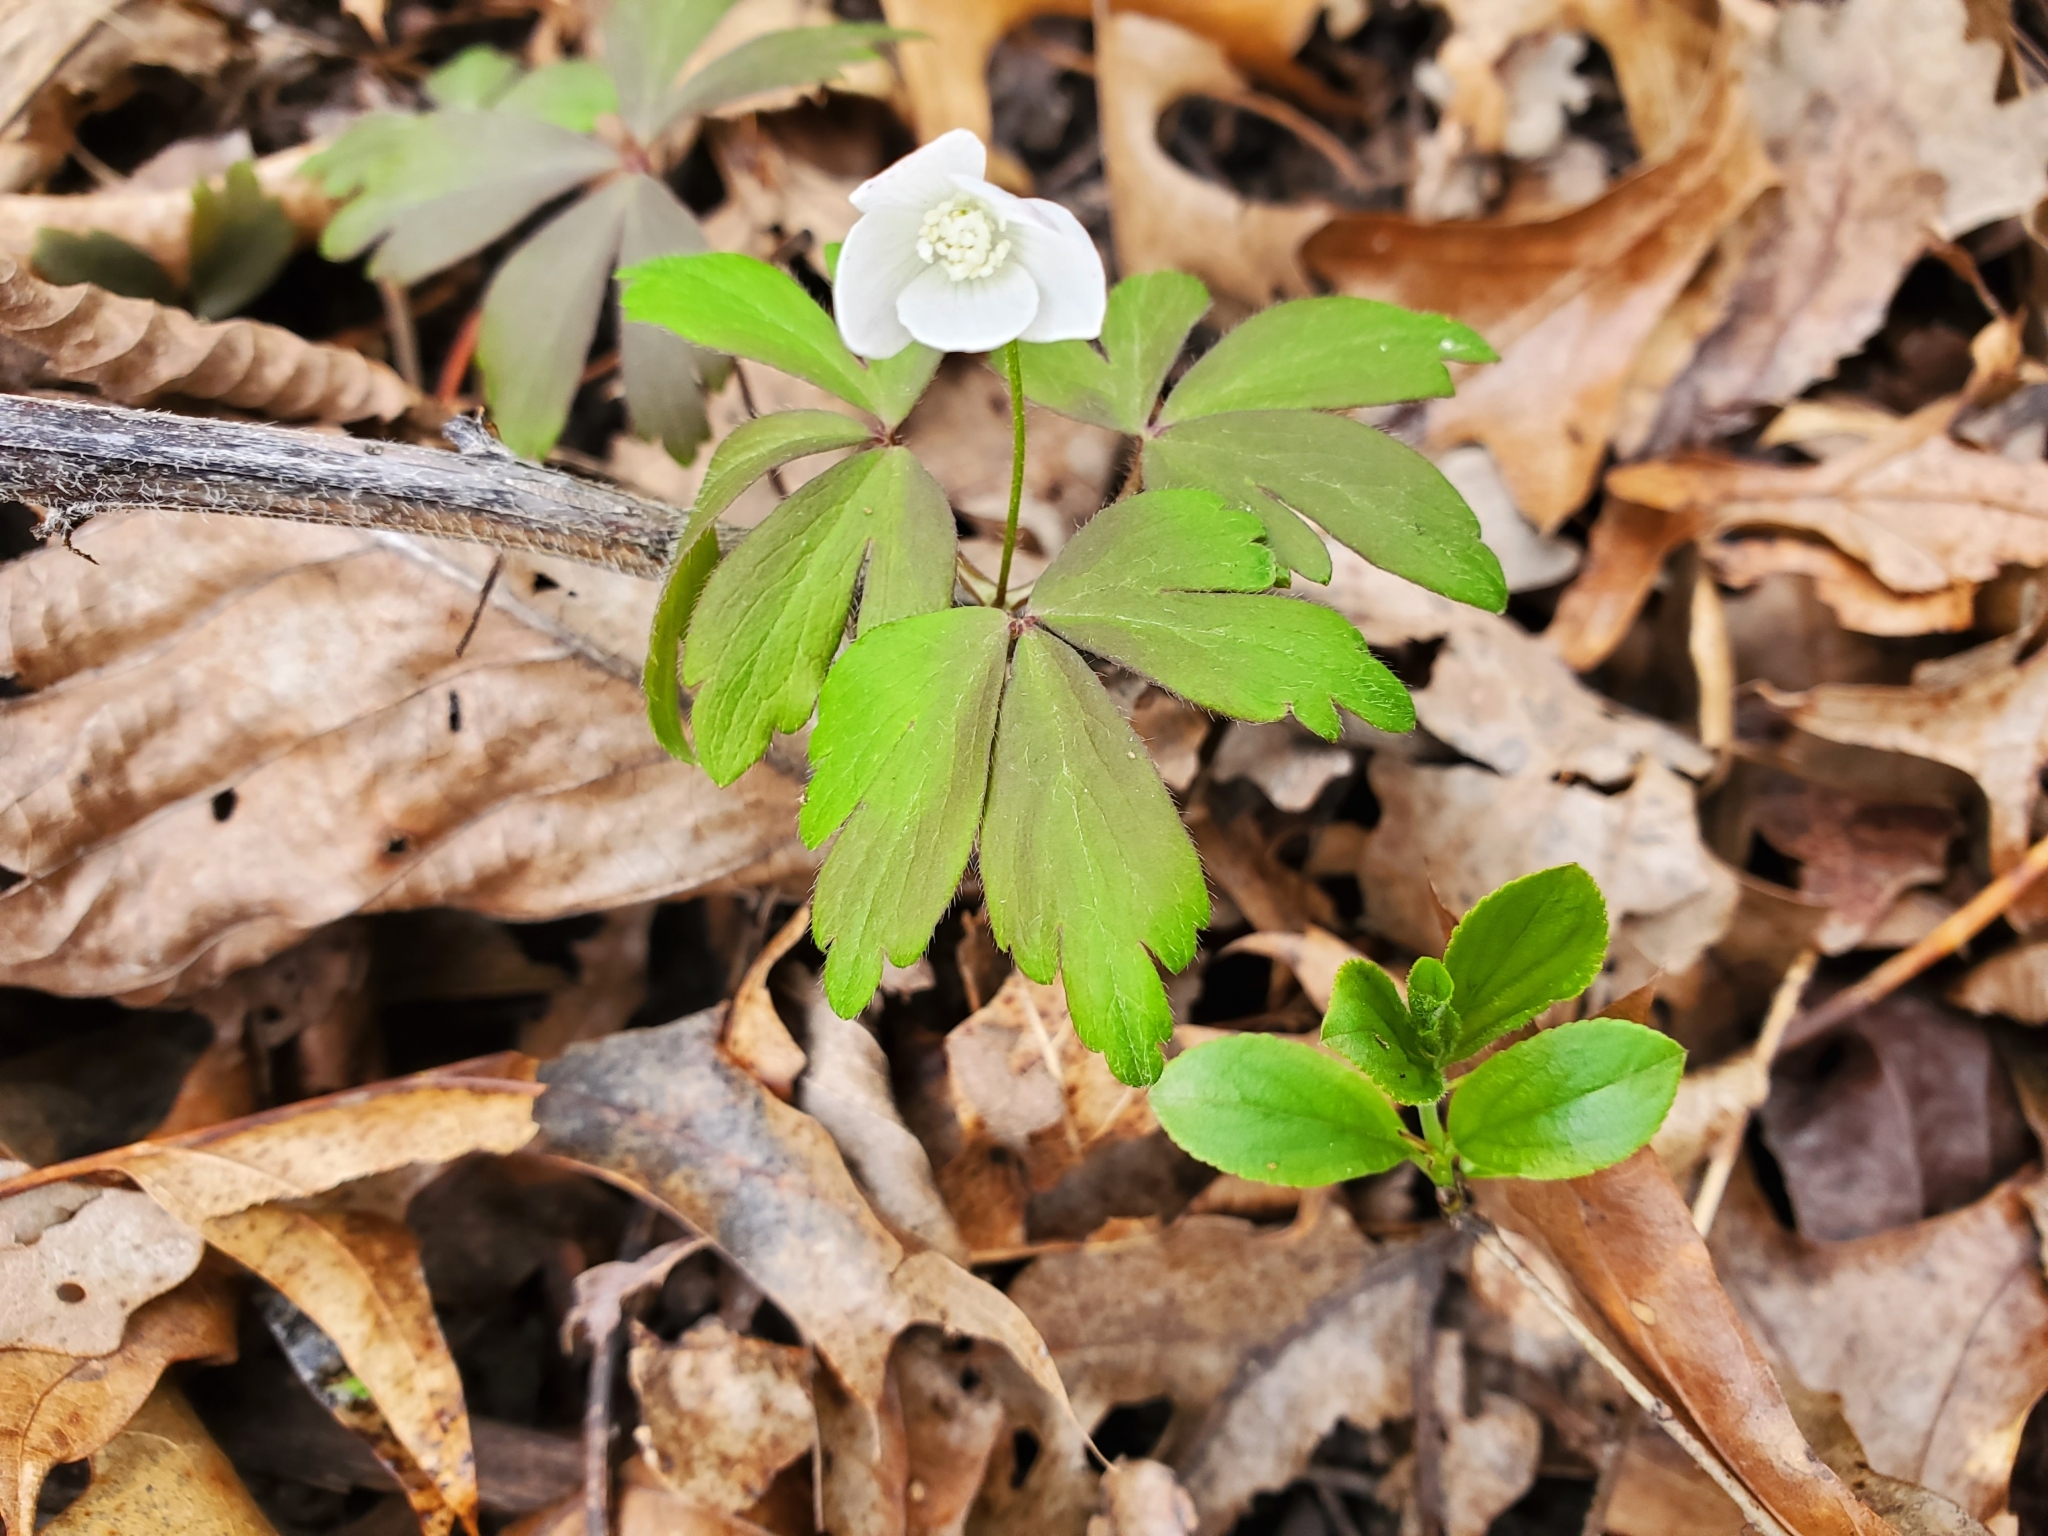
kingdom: Plantae
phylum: Tracheophyta
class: Magnoliopsida
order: Ranunculales
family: Ranunculaceae
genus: Anemone
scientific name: Anemone quinquefolia
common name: Wood anemone
